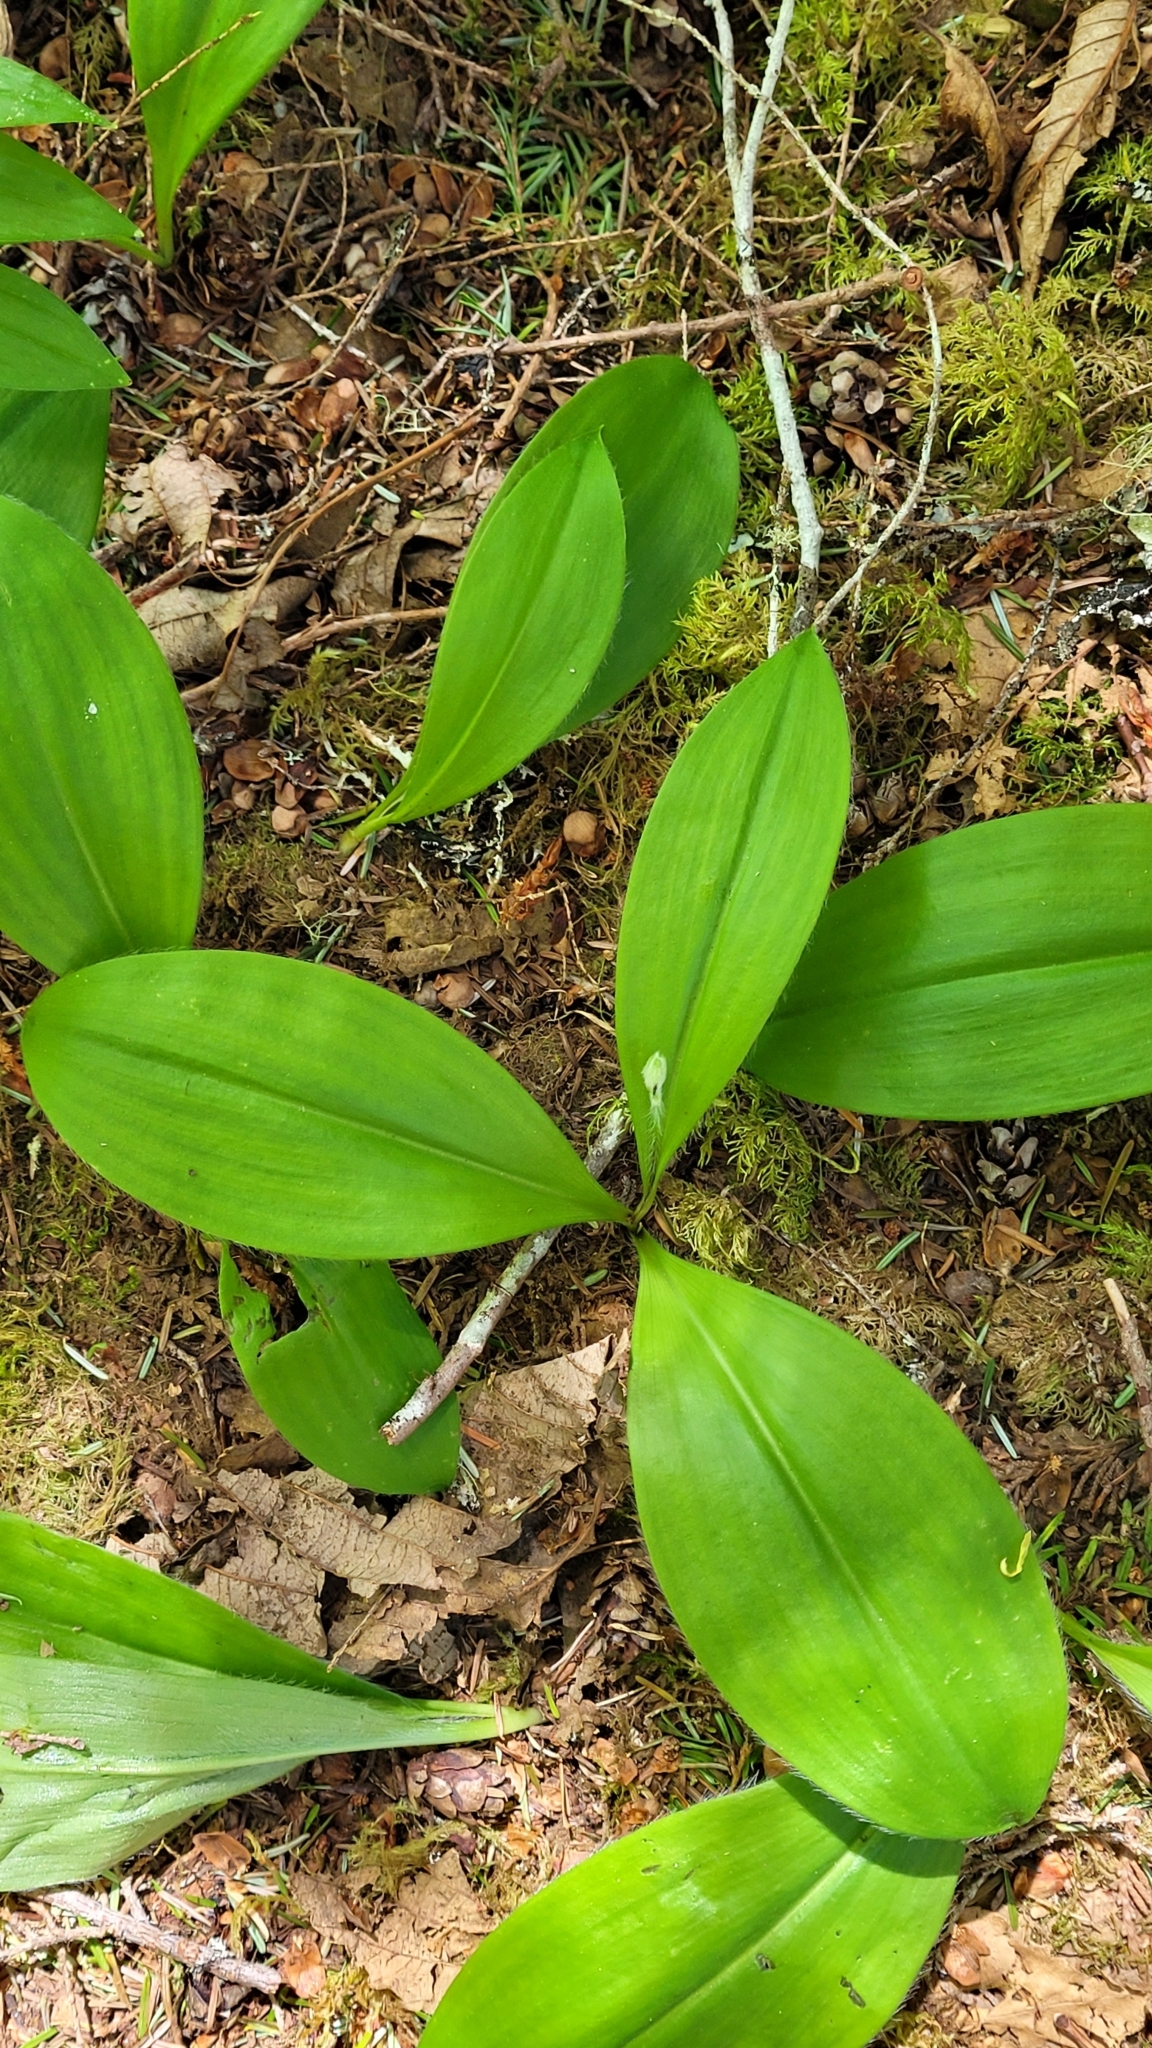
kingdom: Plantae
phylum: Tracheophyta
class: Liliopsida
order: Liliales
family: Liliaceae
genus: Clintonia
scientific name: Clintonia uniflora
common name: Queen's cup
